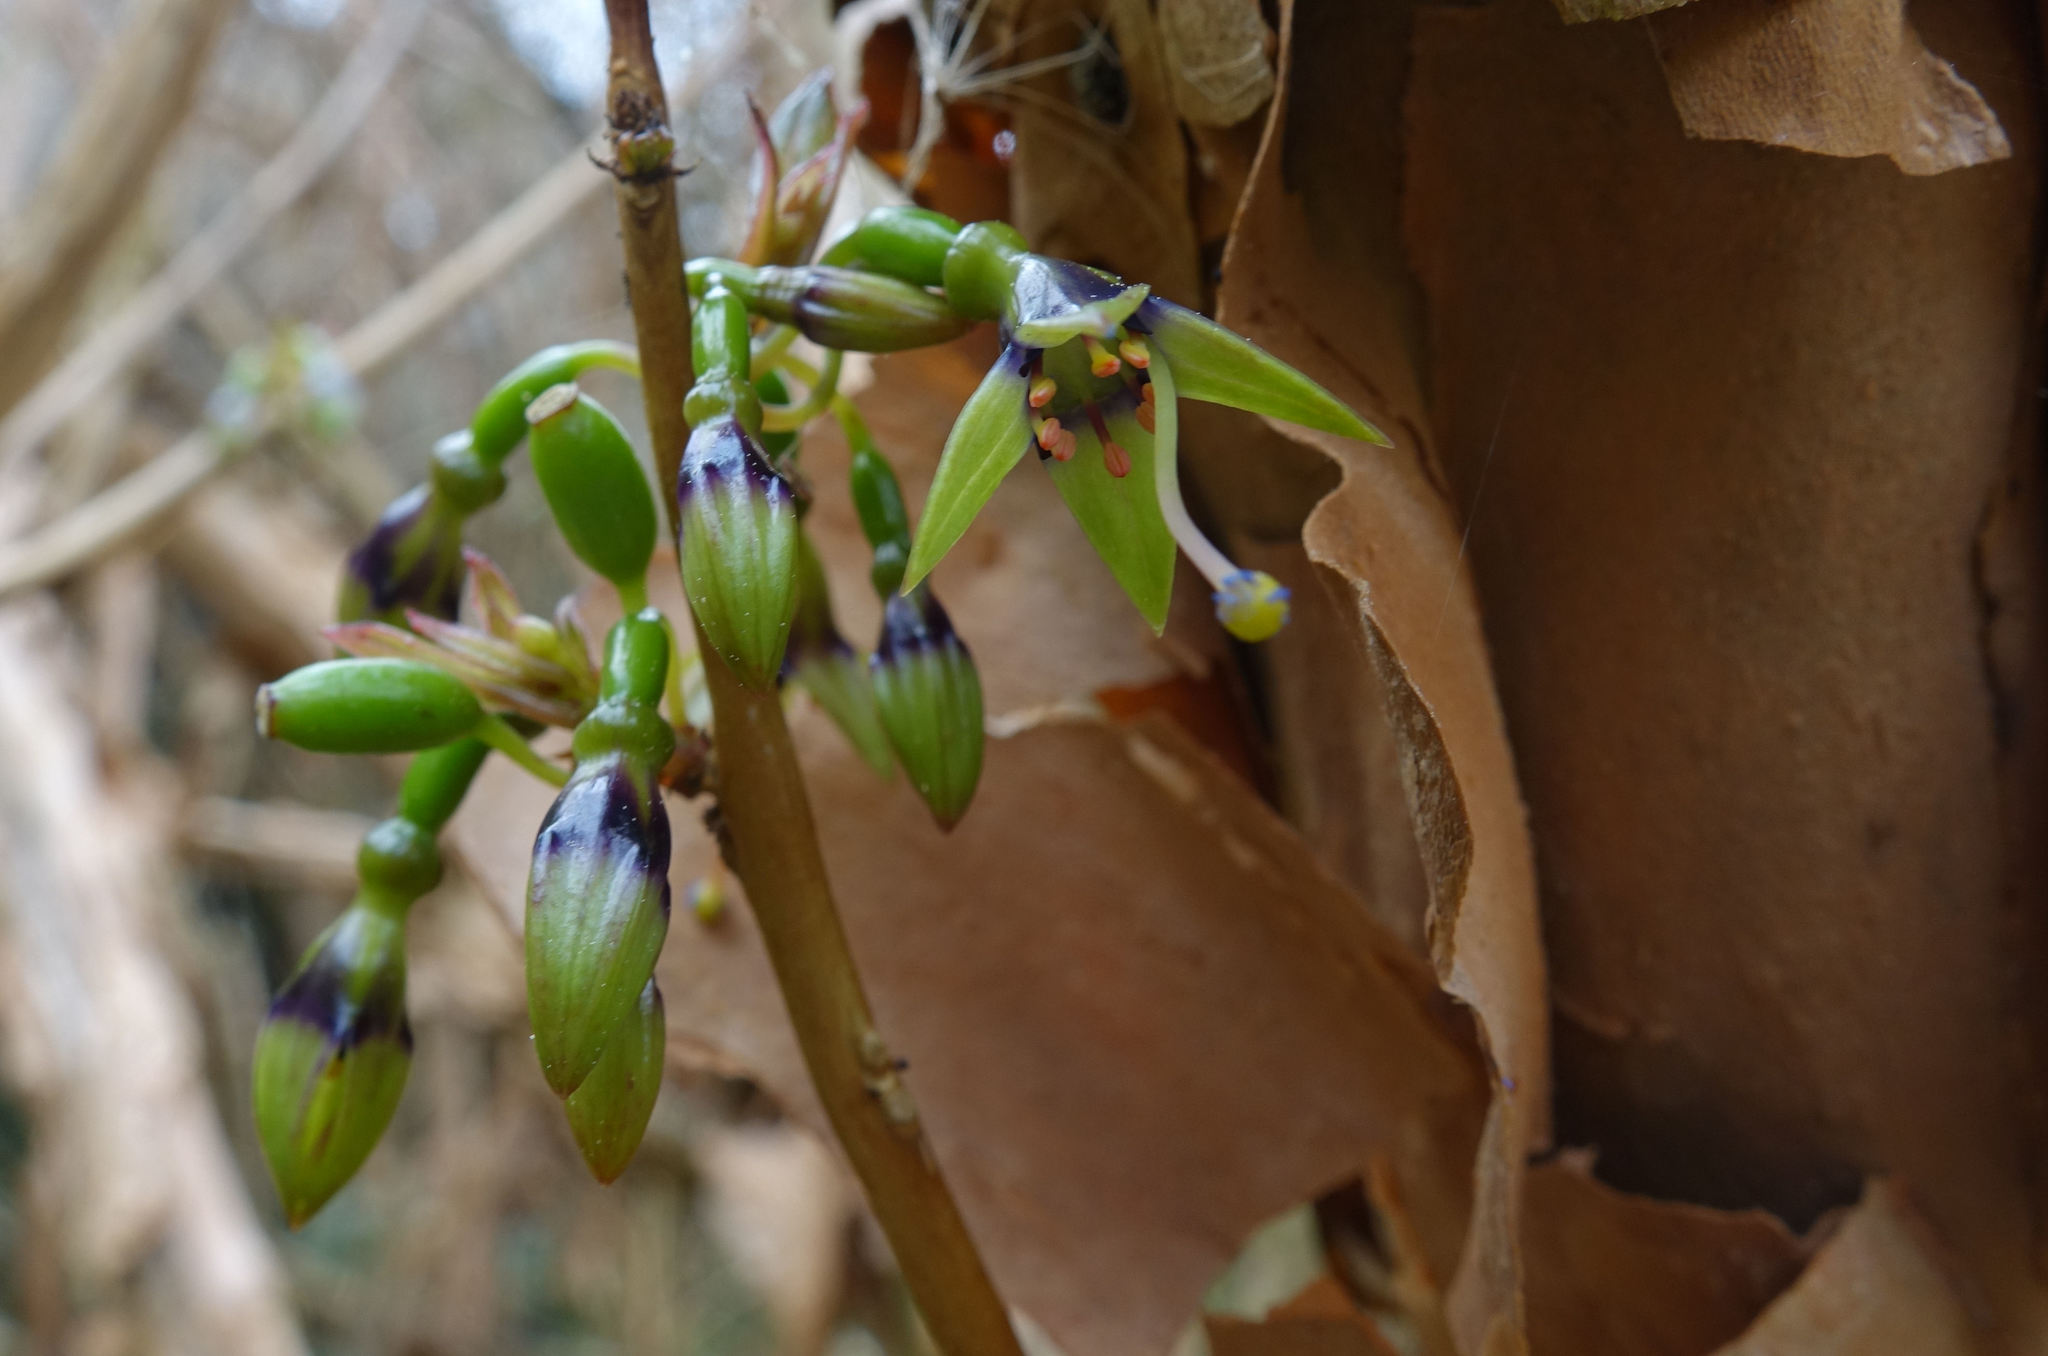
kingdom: Plantae
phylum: Tracheophyta
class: Magnoliopsida
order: Myrtales
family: Onagraceae
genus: Fuchsia
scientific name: Fuchsia excorticata
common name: Tree fuchsia
